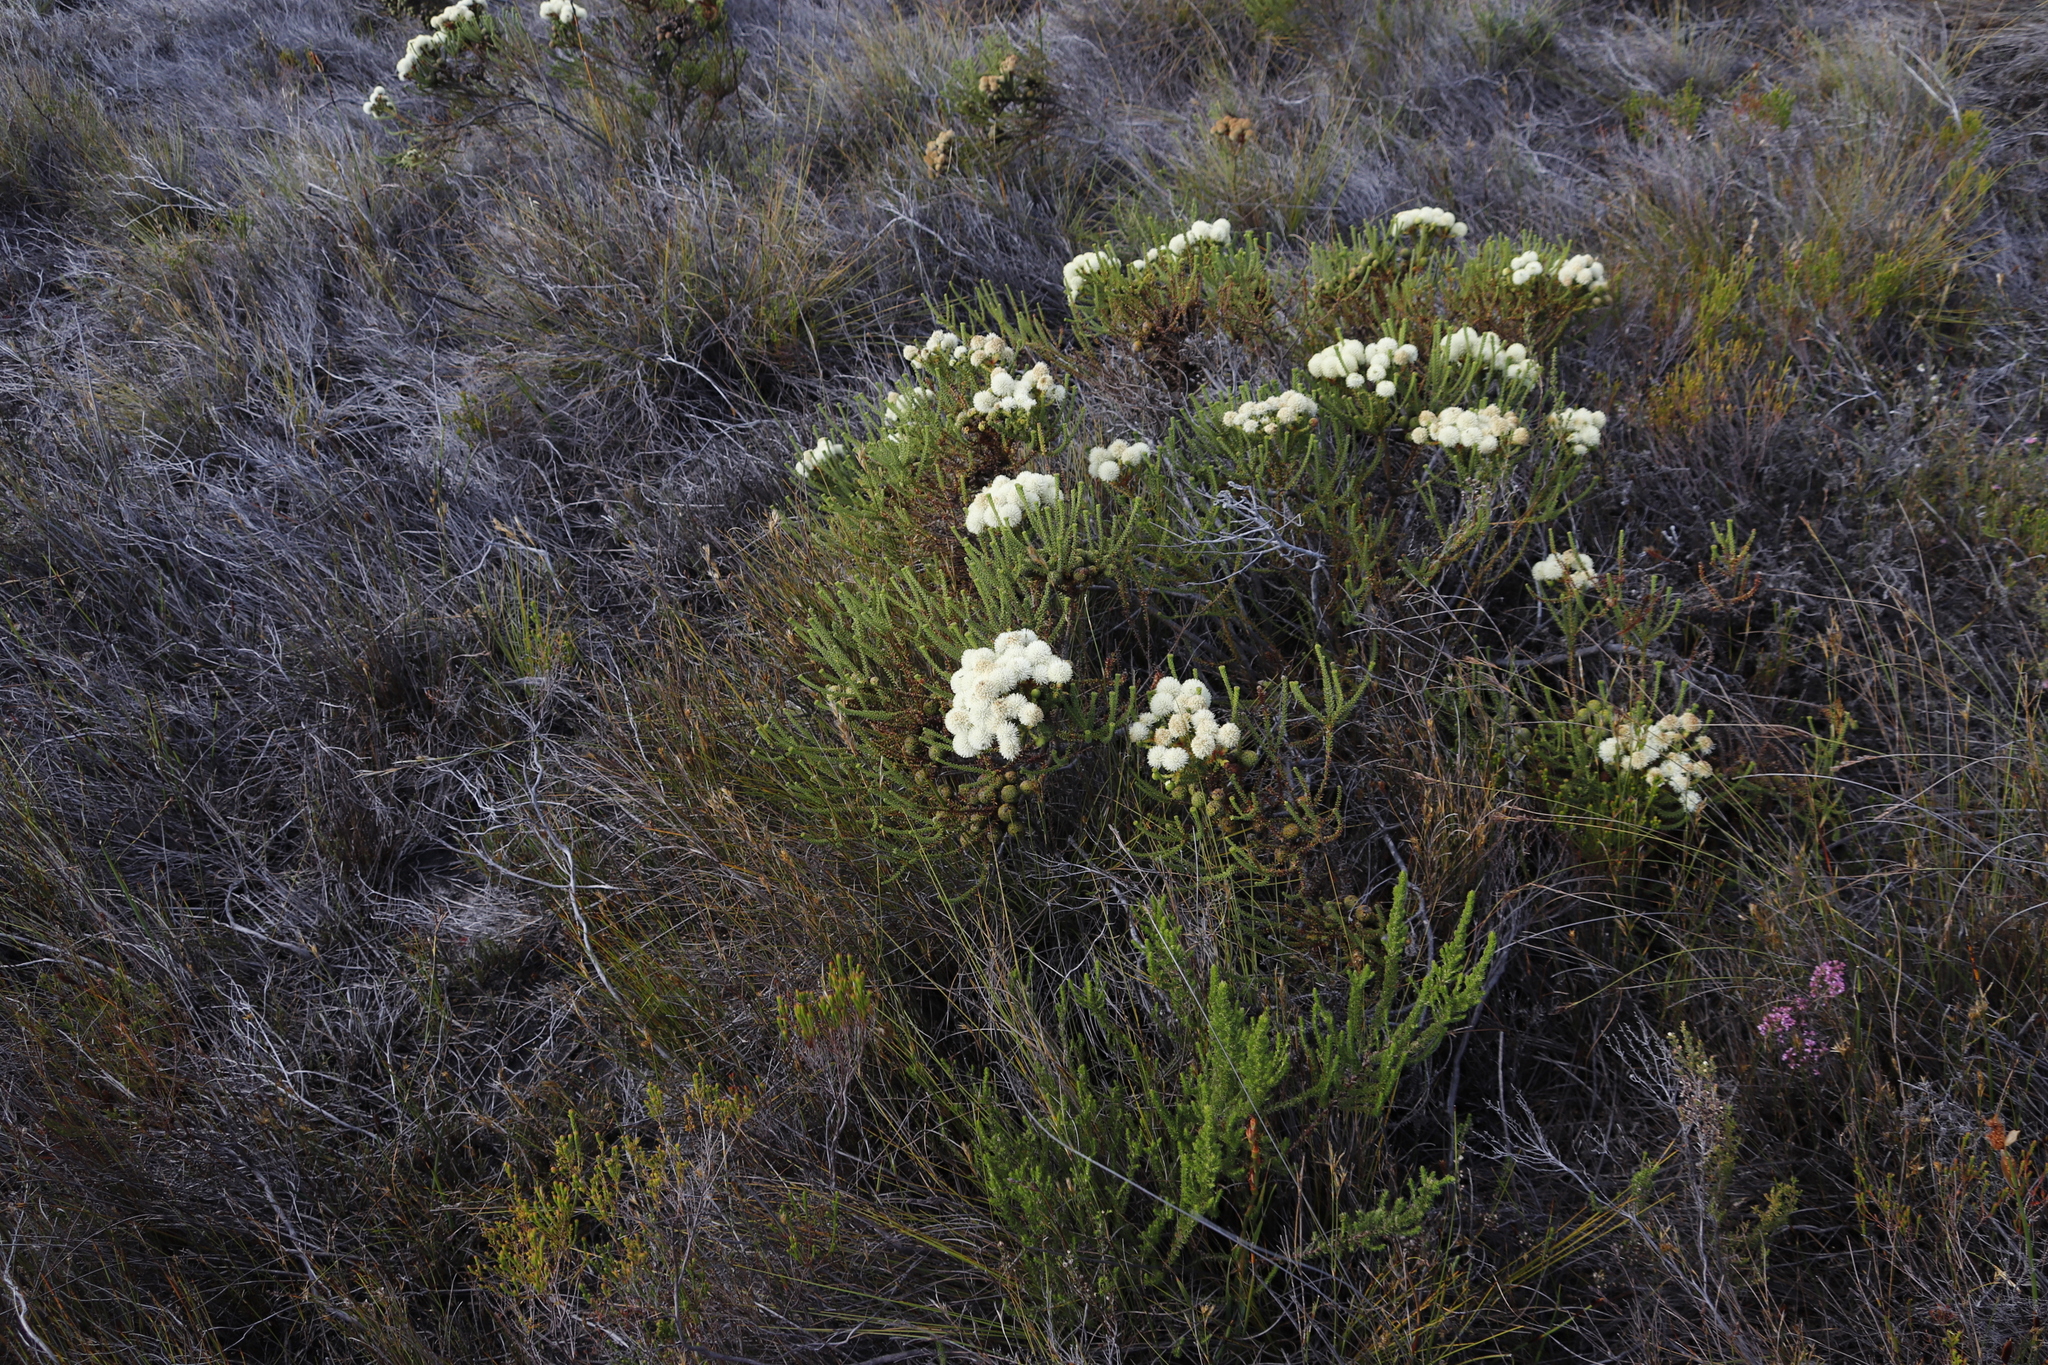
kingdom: Plantae
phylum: Tracheophyta
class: Magnoliopsida
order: Bruniales
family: Bruniaceae
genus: Berzelia
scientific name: Berzelia abrotanoides
